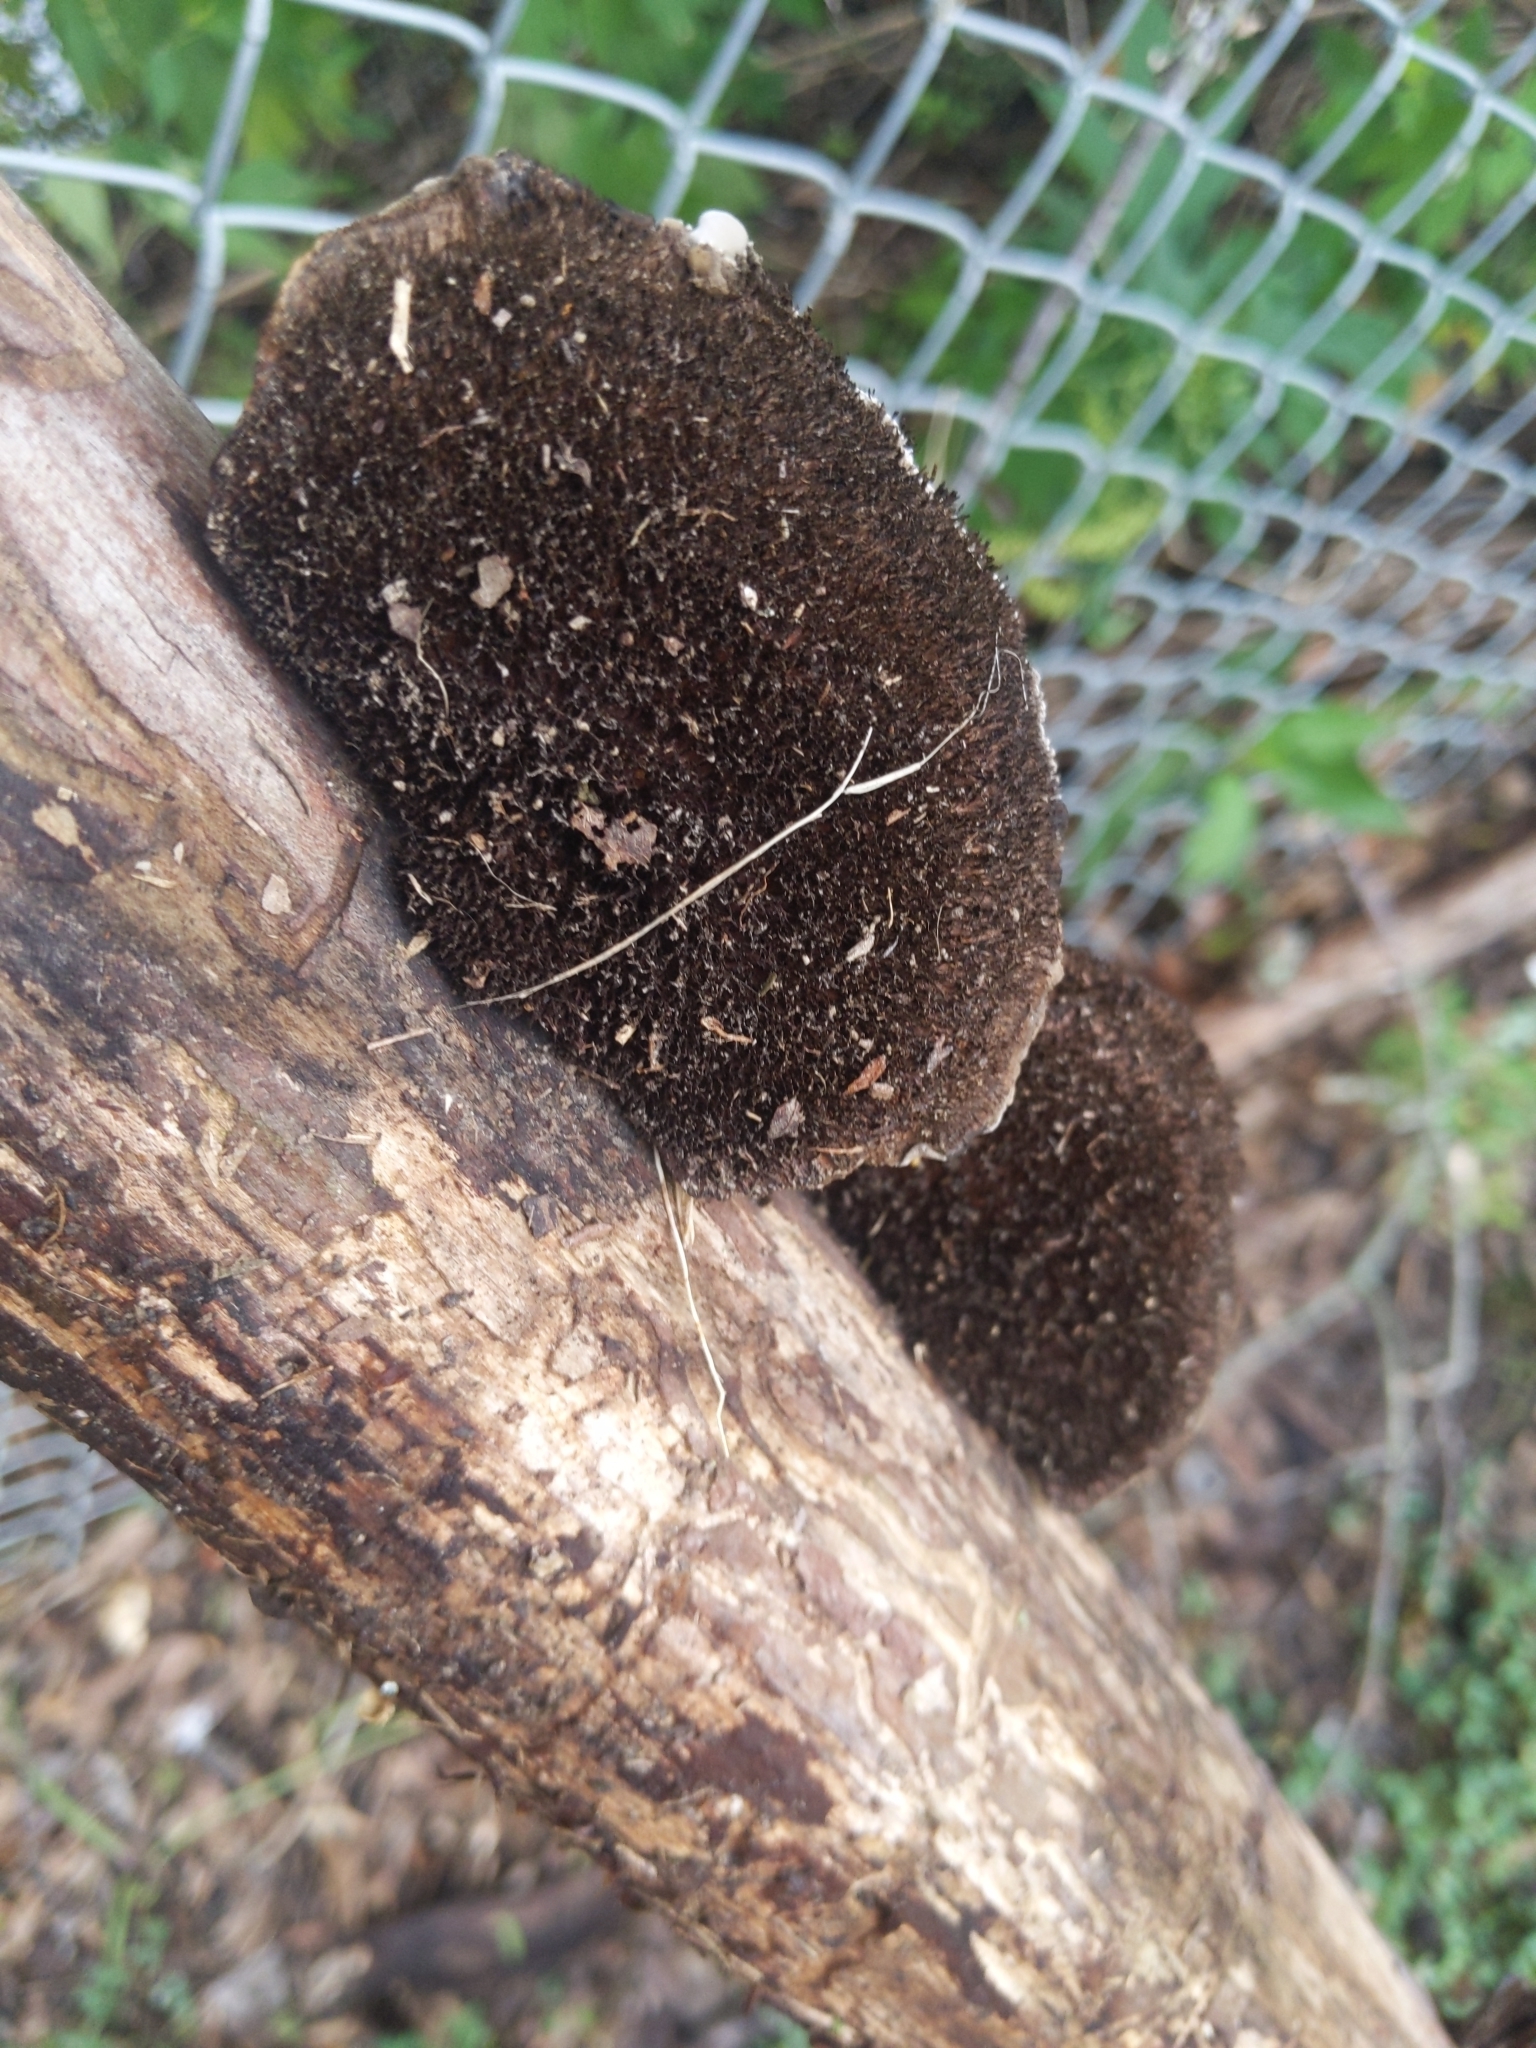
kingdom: Fungi
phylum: Basidiomycota
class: Agaricomycetes
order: Polyporales
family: Cerrenaceae
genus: Cerrena
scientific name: Cerrena hydnoides
